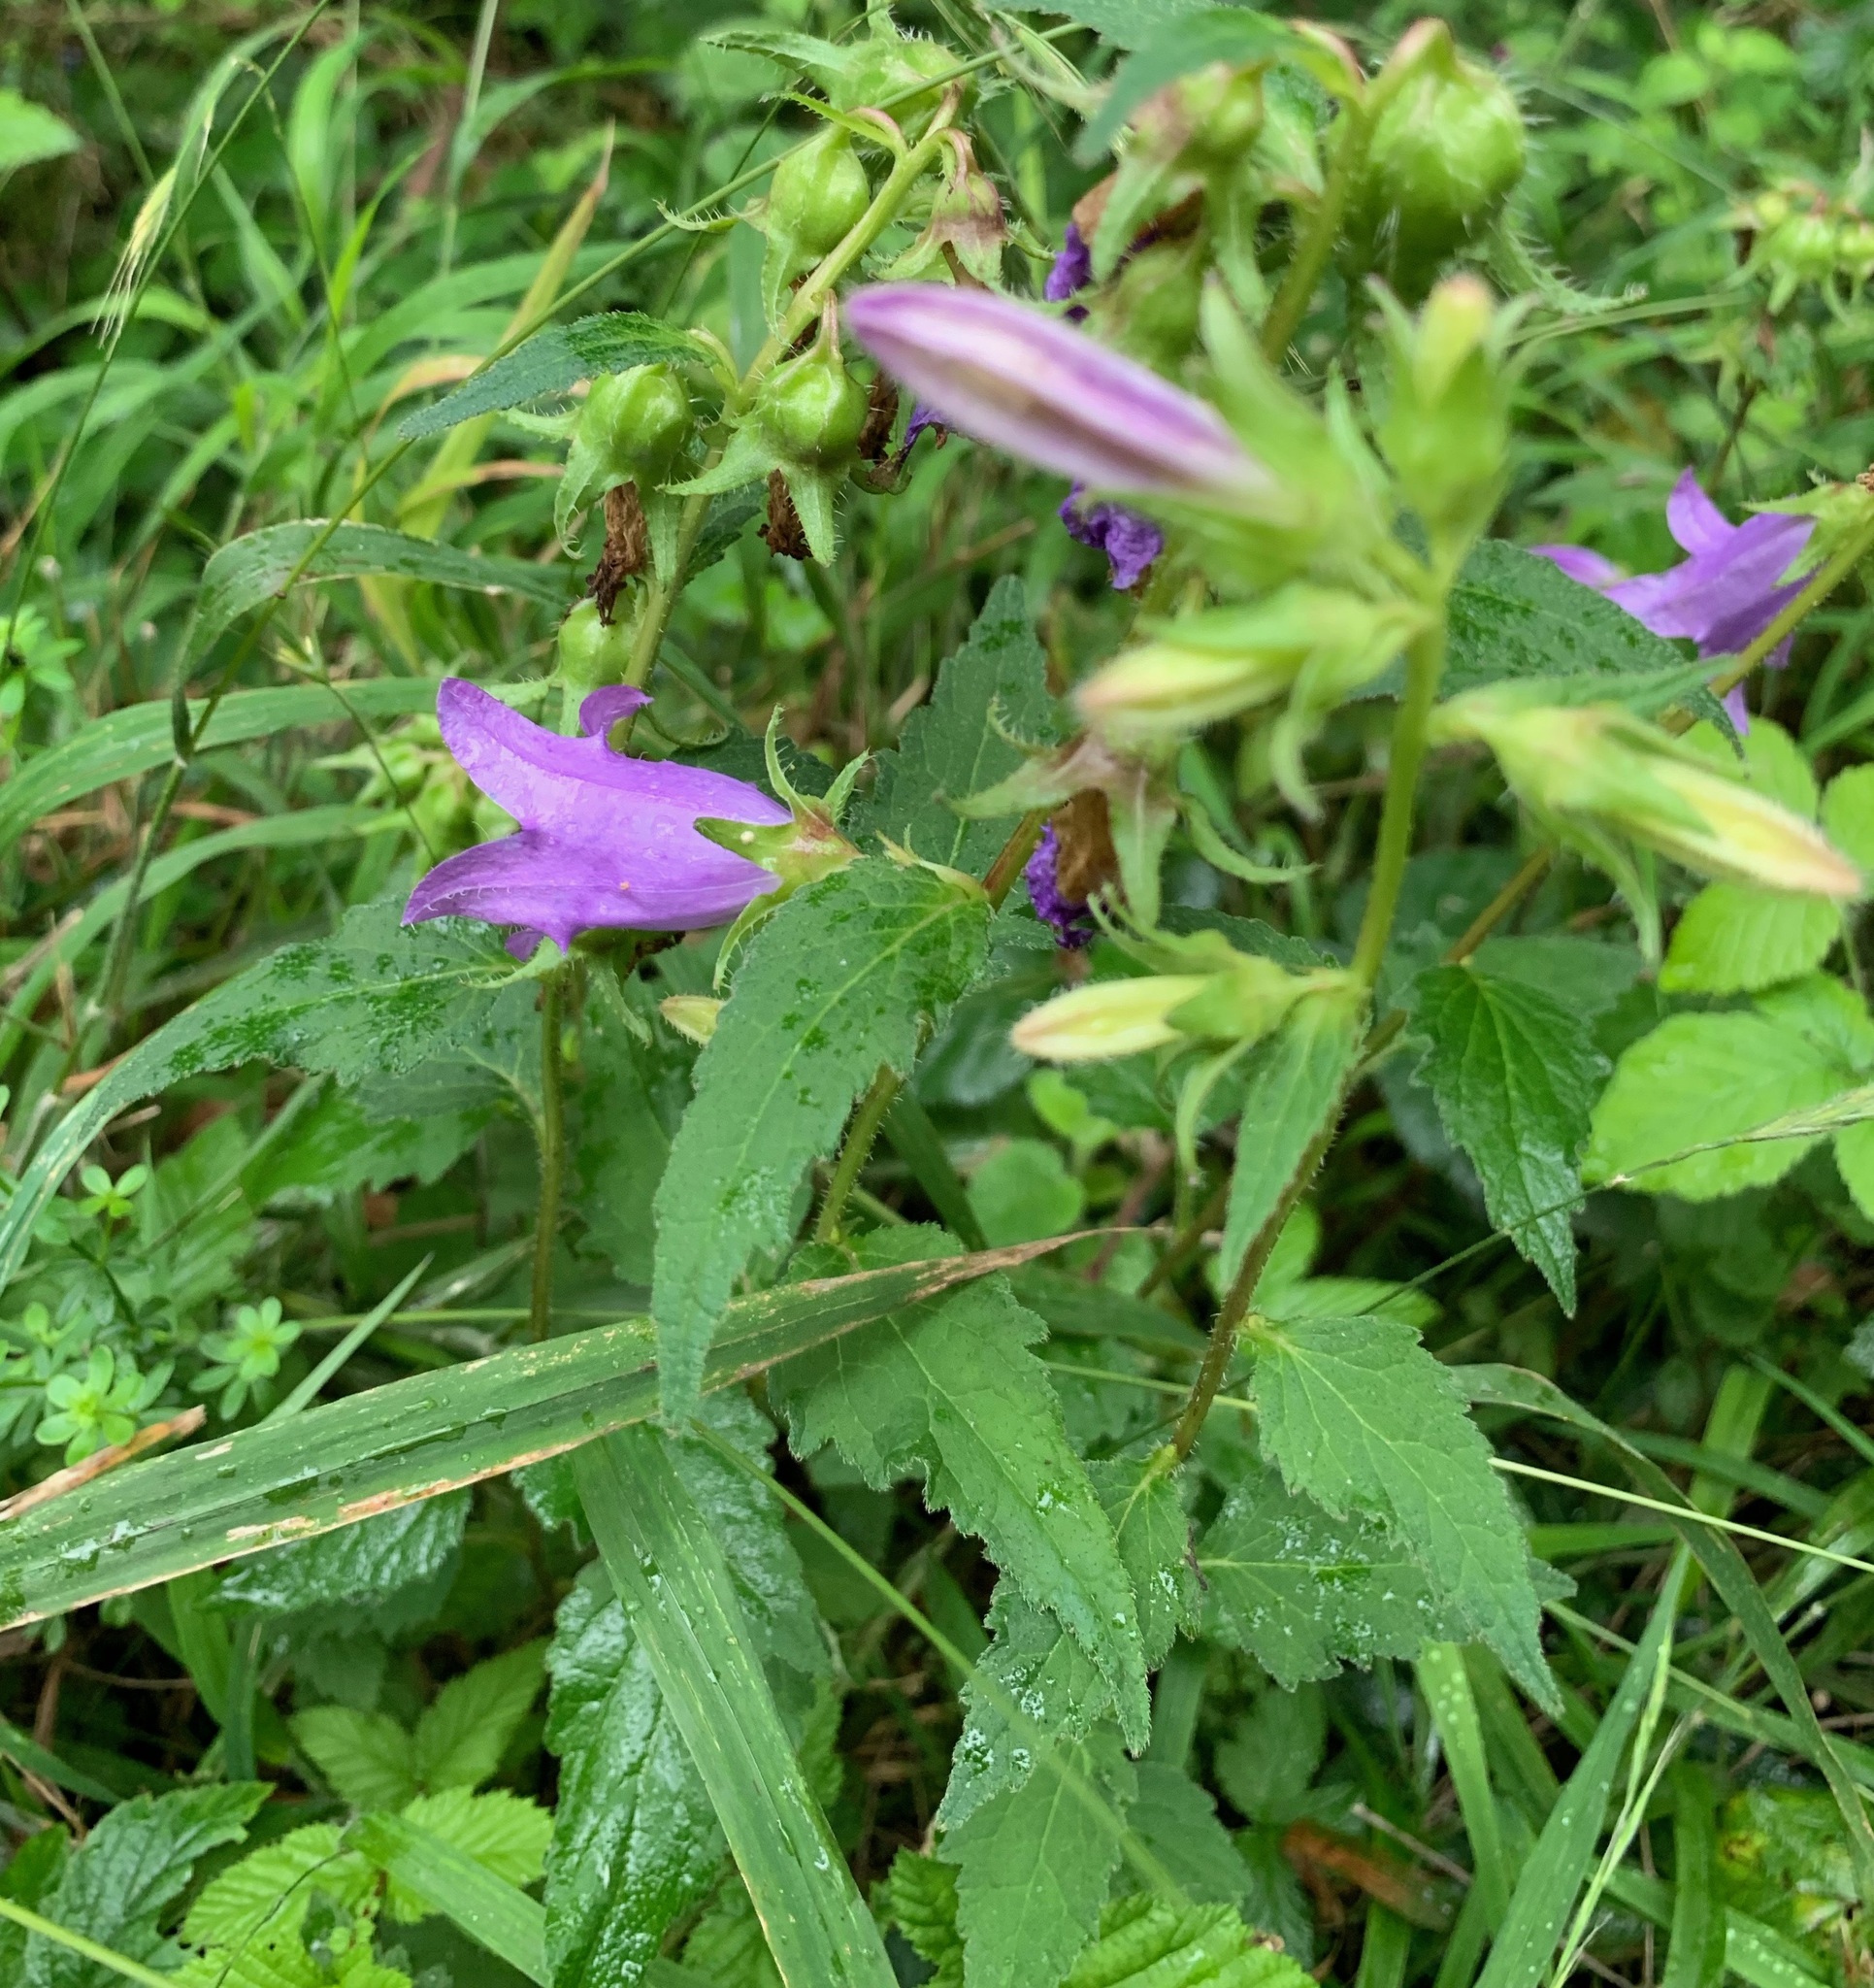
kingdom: Plantae
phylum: Tracheophyta
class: Magnoliopsida
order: Asterales
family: Campanulaceae
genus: Campanula
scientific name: Campanula trachelium
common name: Nettle-leaved bellflower
